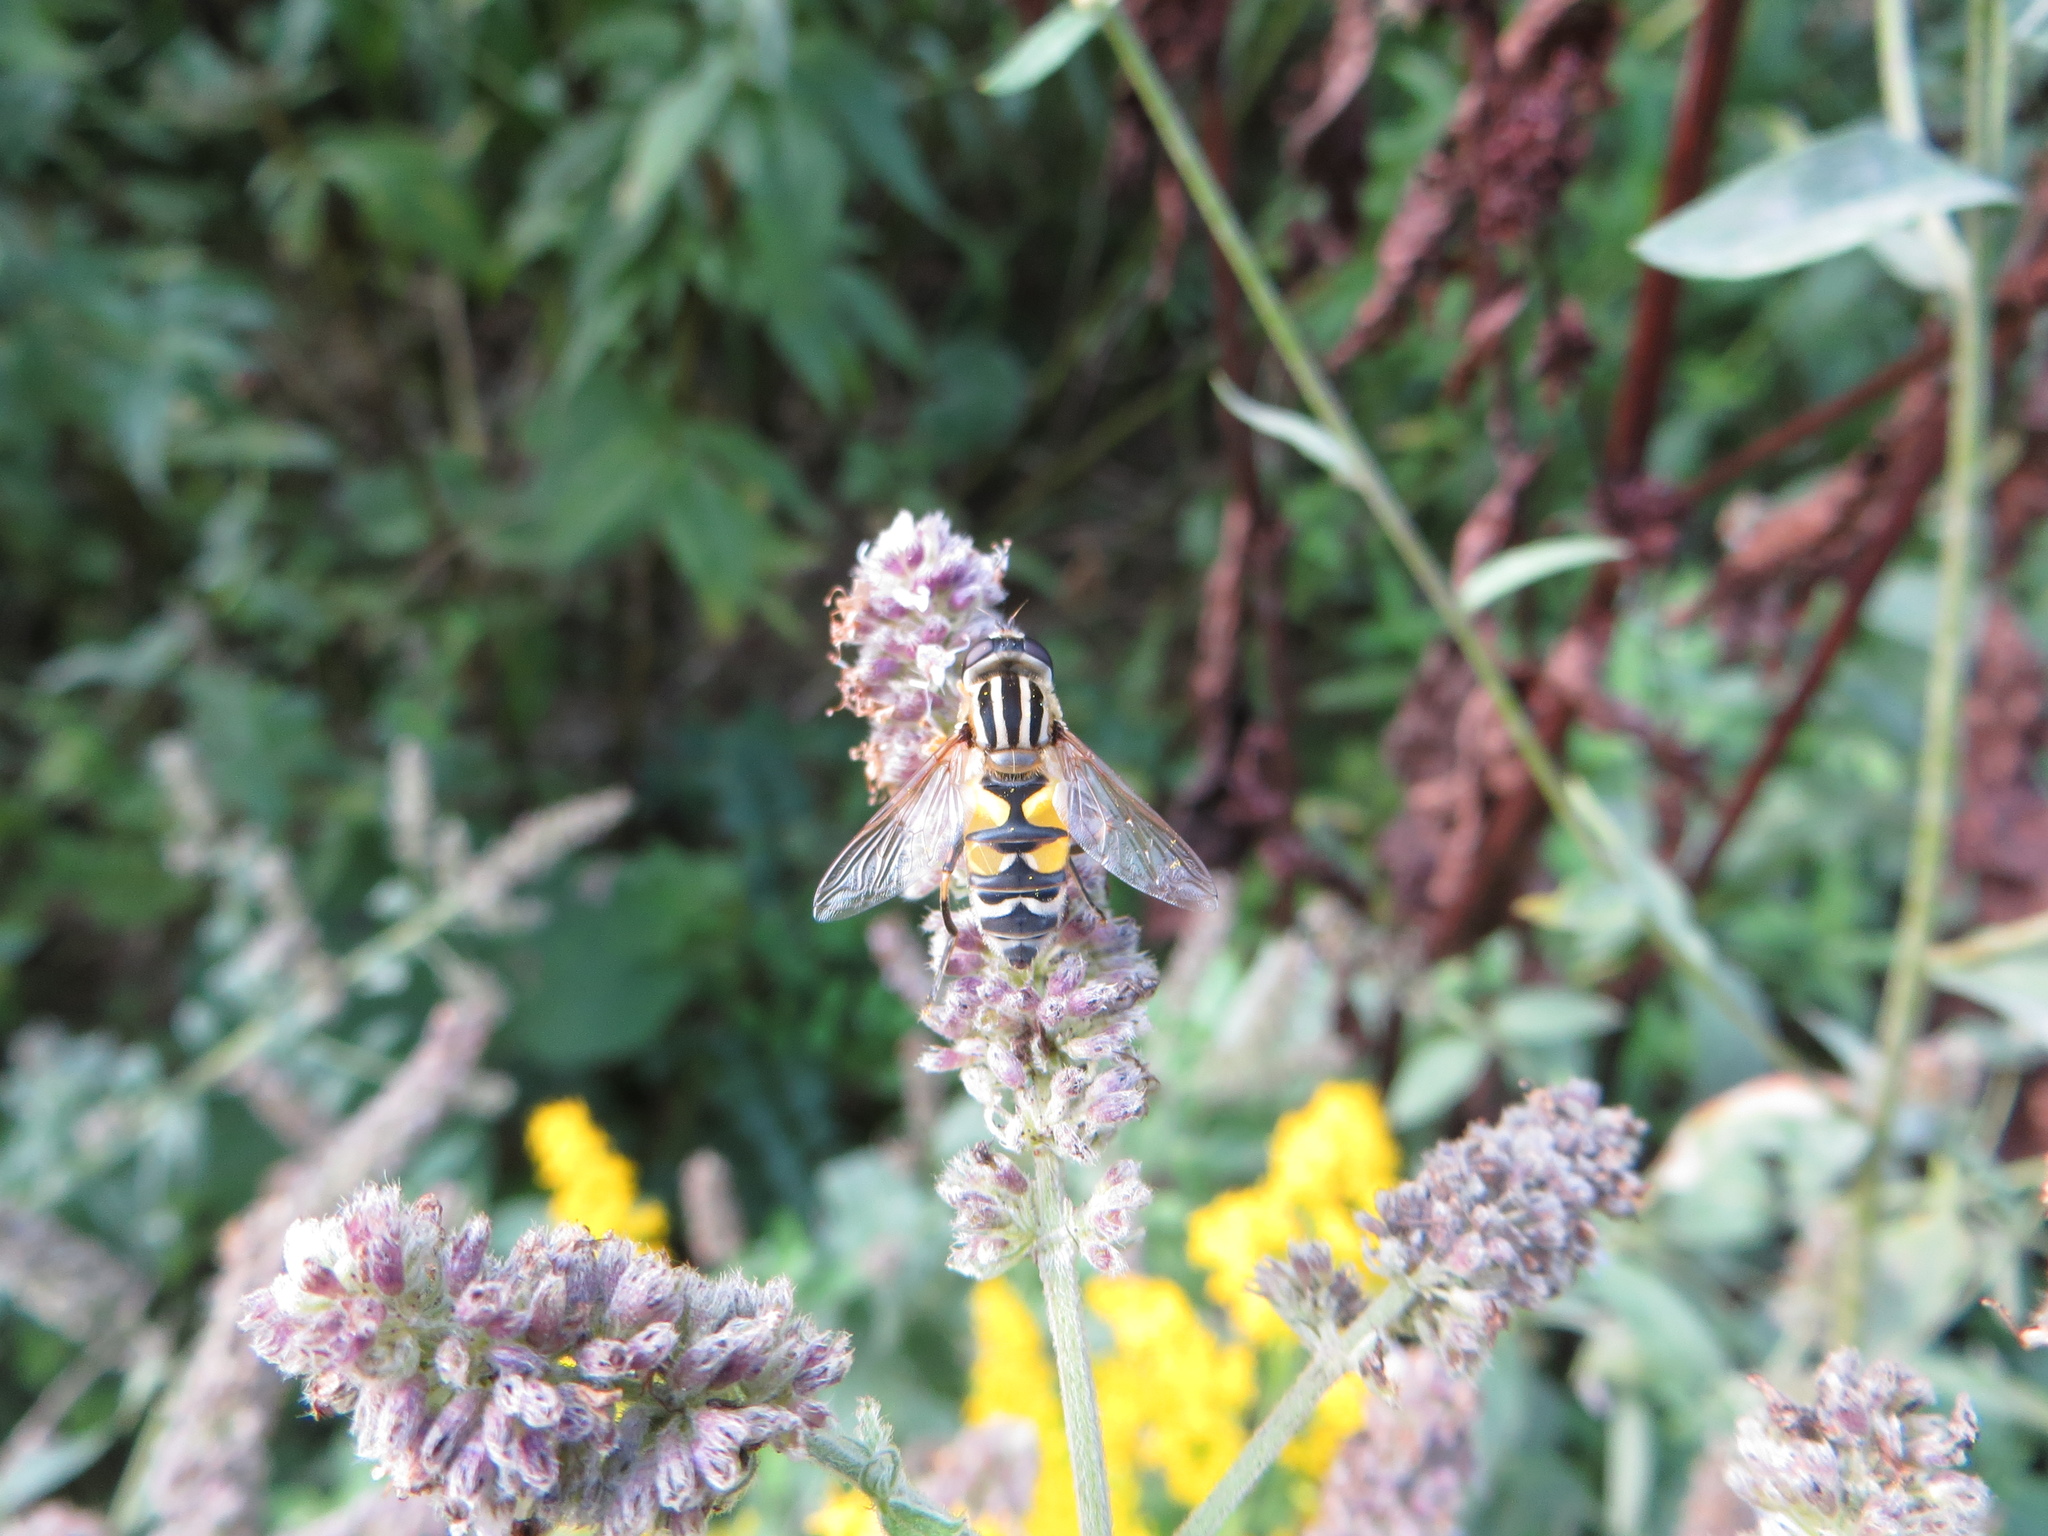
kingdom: Animalia
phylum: Arthropoda
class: Insecta
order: Diptera
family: Syrphidae
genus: Helophilus
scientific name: Helophilus trivittatus
